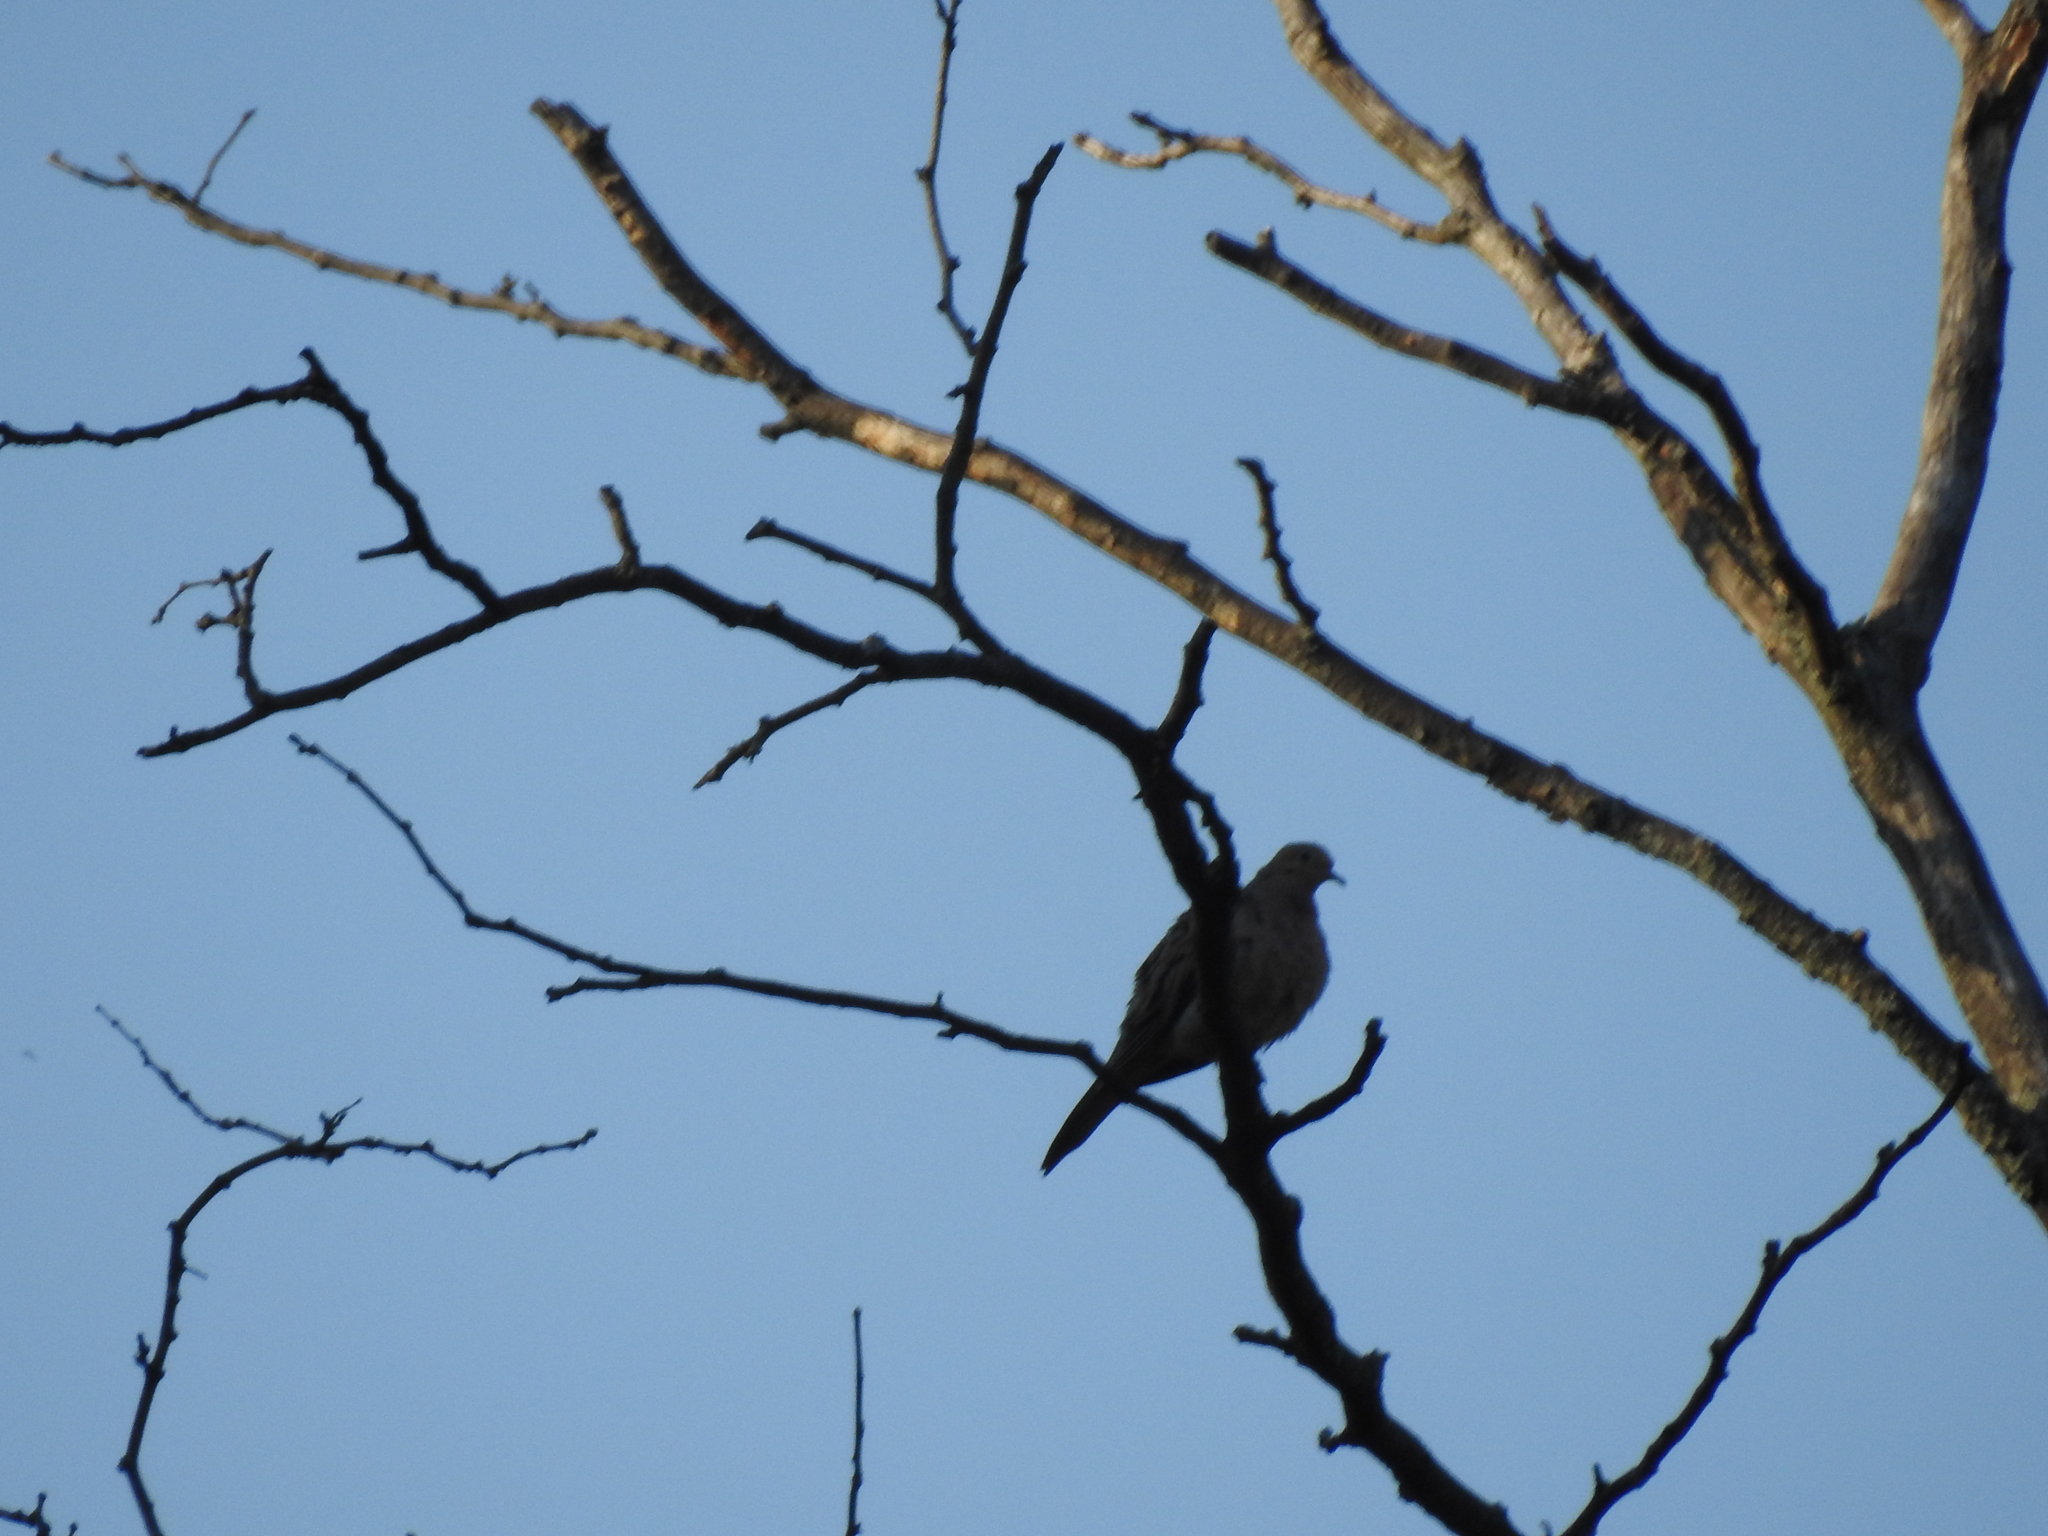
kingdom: Animalia
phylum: Chordata
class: Aves
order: Columbiformes
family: Columbidae
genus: Zenaida
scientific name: Zenaida macroura
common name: Mourning dove
